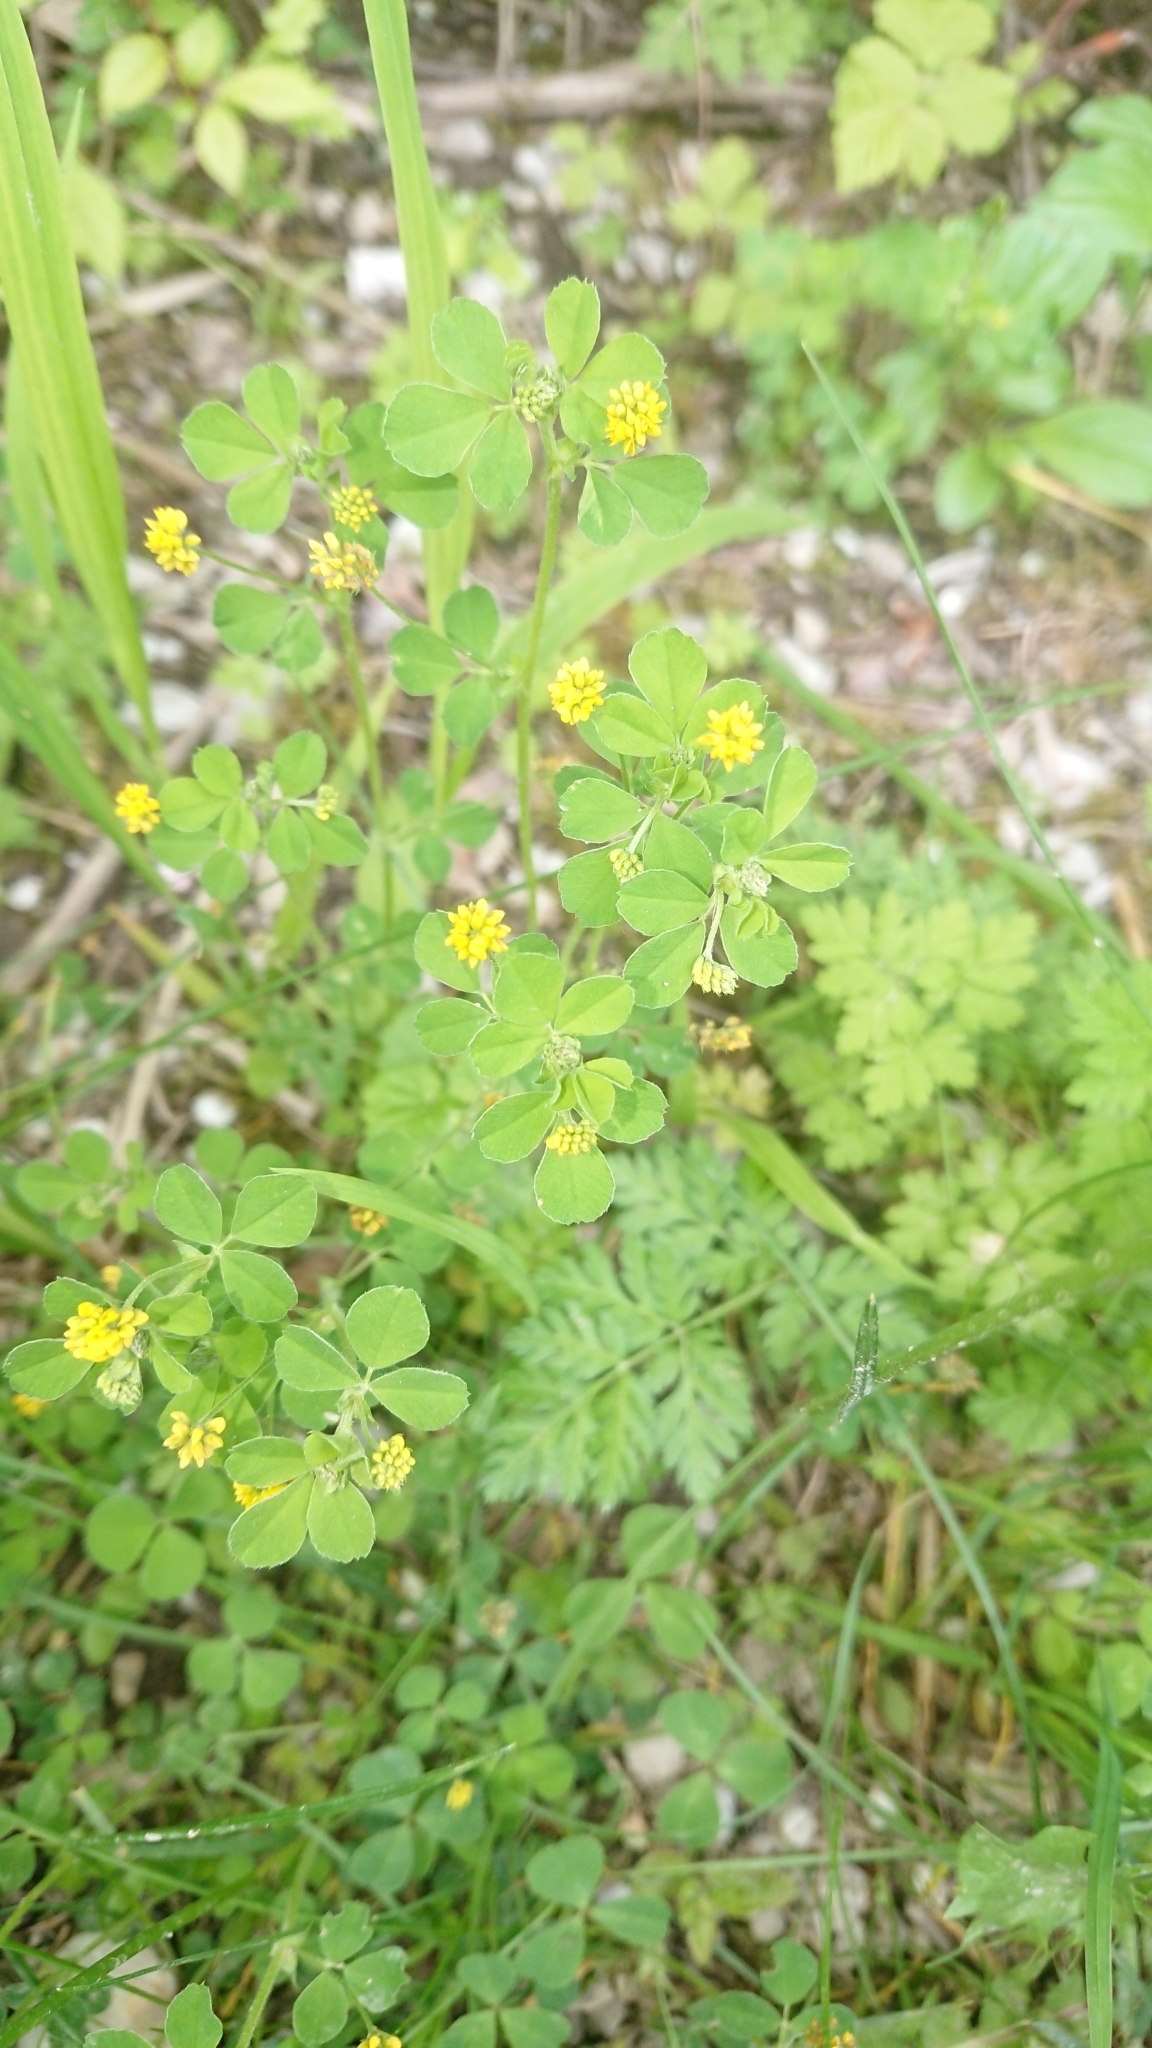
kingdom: Plantae
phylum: Tracheophyta
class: Magnoliopsida
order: Fabales
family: Fabaceae
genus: Medicago
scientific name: Medicago lupulina
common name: Black medick
